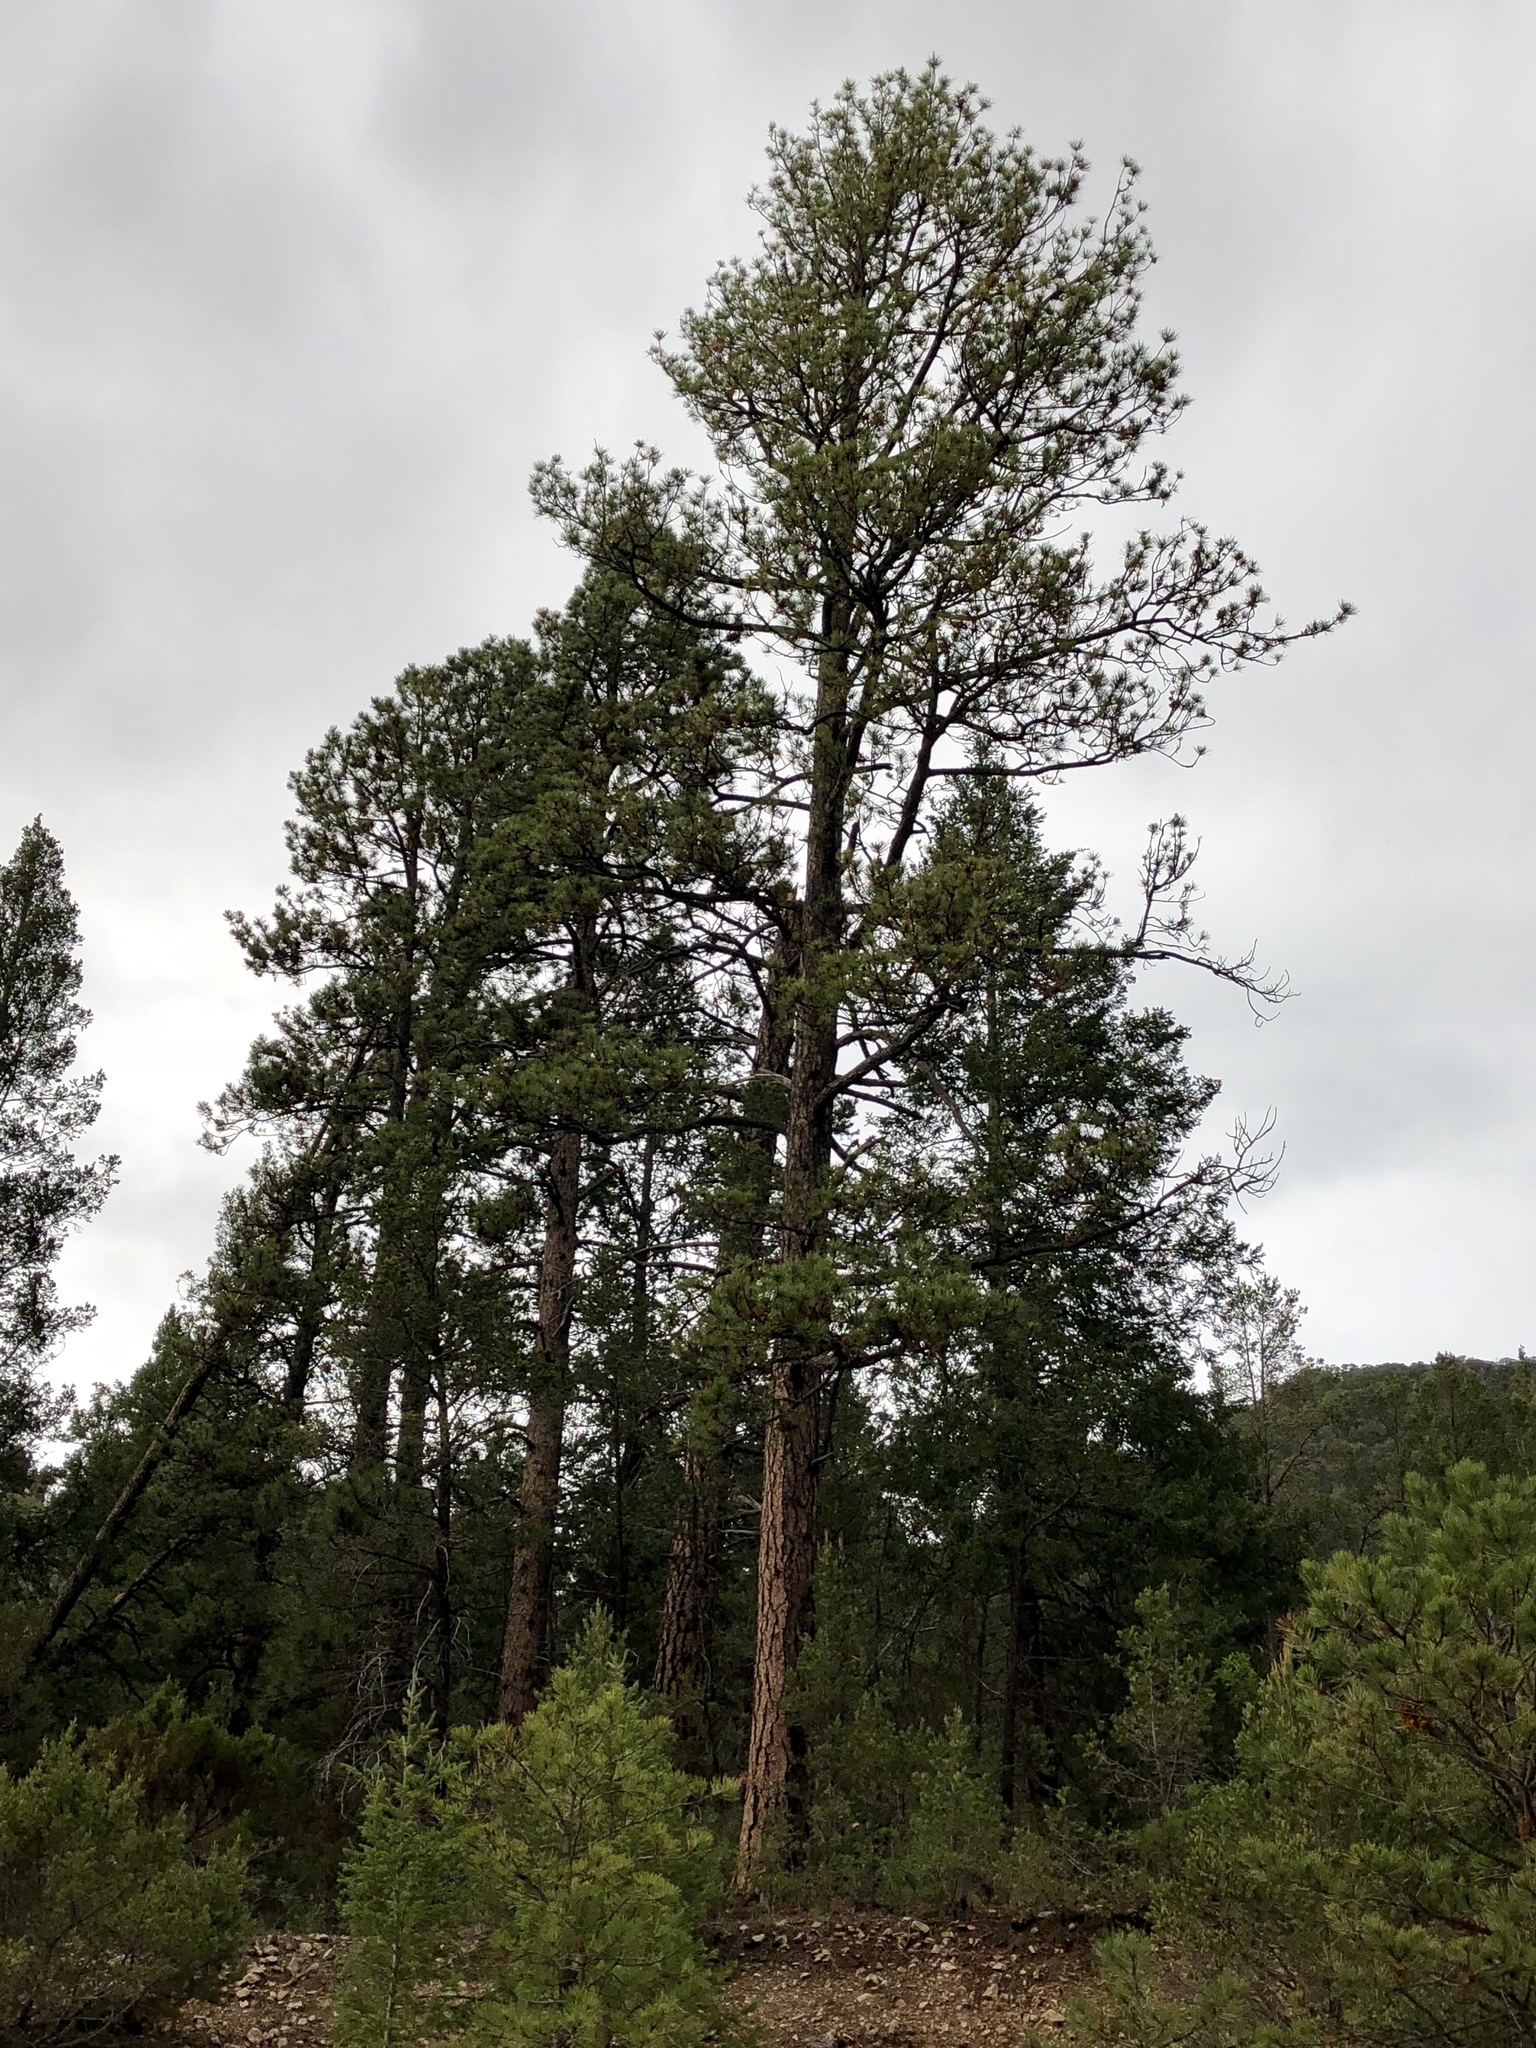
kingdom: Plantae
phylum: Tracheophyta
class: Pinopsida
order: Pinales
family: Pinaceae
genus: Pinus
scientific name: Pinus ponderosa
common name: Western yellow-pine
